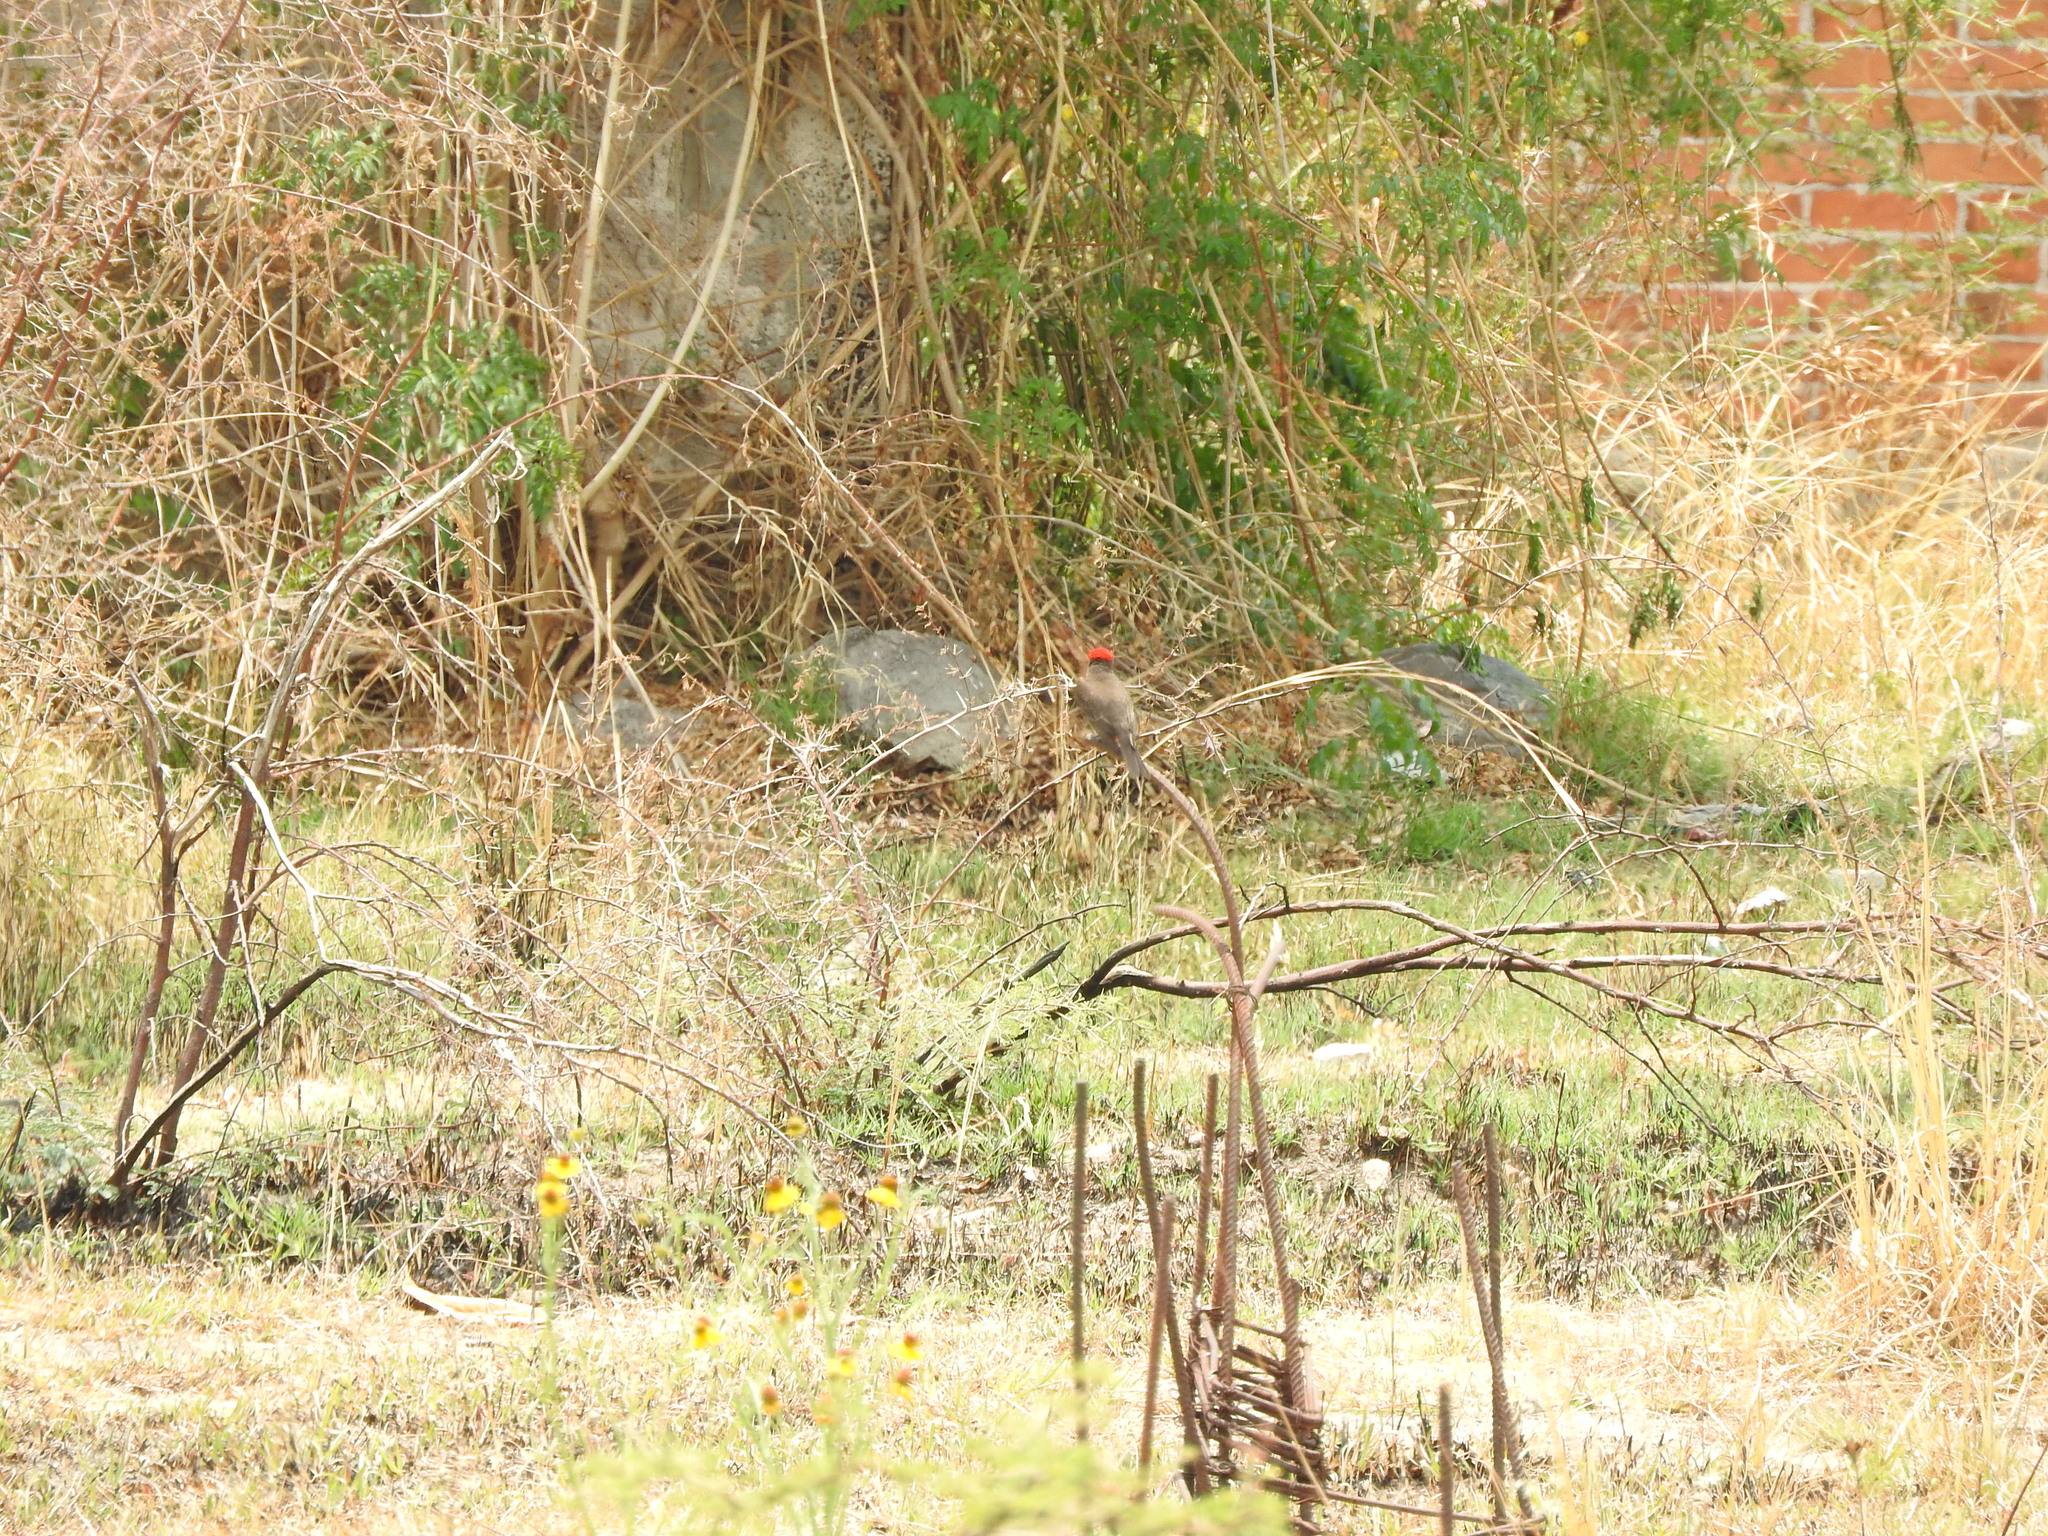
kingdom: Animalia
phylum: Chordata
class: Aves
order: Passeriformes
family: Tyrannidae
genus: Pyrocephalus
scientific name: Pyrocephalus rubinus
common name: Vermilion flycatcher
